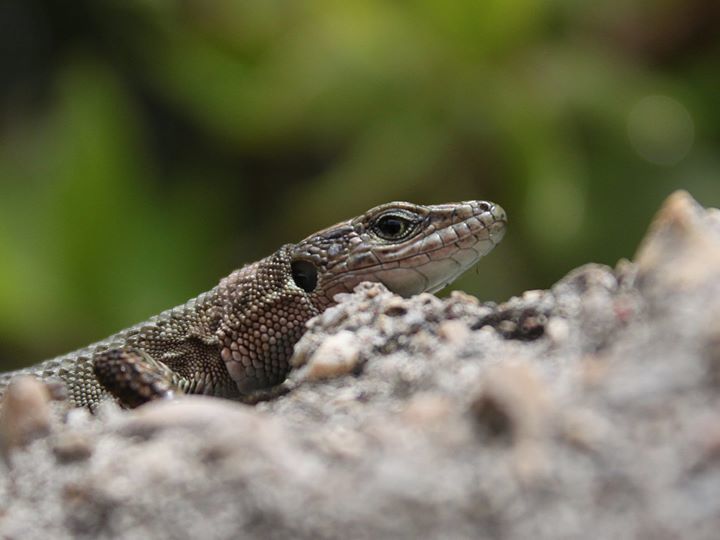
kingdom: Animalia
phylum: Chordata
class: Squamata
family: Lacertidae
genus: Podarcis
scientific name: Podarcis muralis
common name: Common wall lizard
